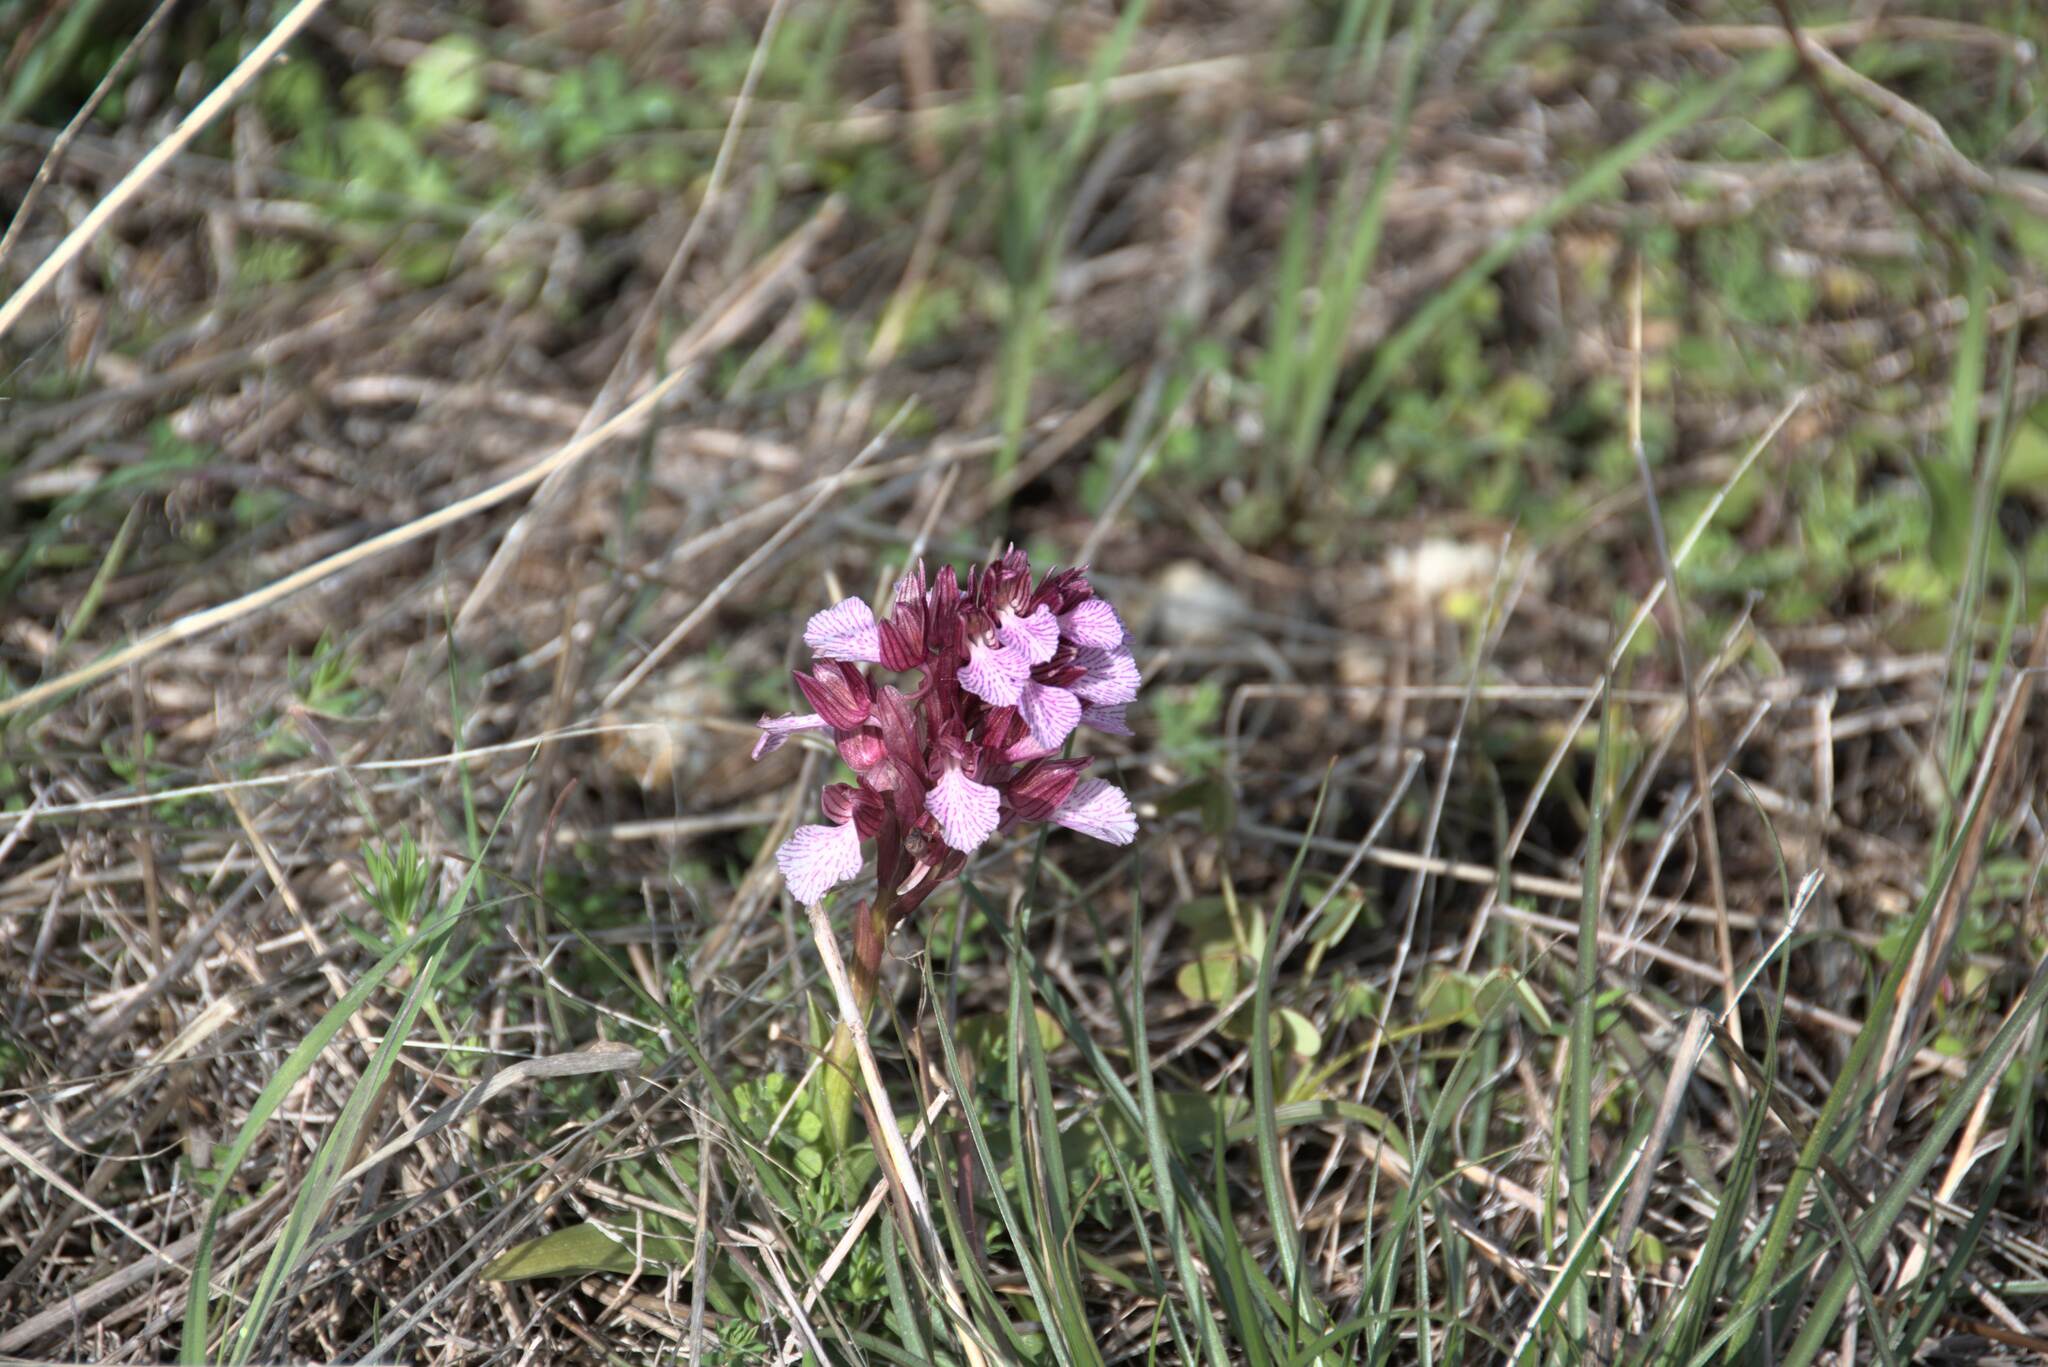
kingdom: Plantae
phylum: Tracheophyta
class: Liliopsida
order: Asparagales
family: Orchidaceae
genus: Anacamptis
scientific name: Anacamptis papilionacea
